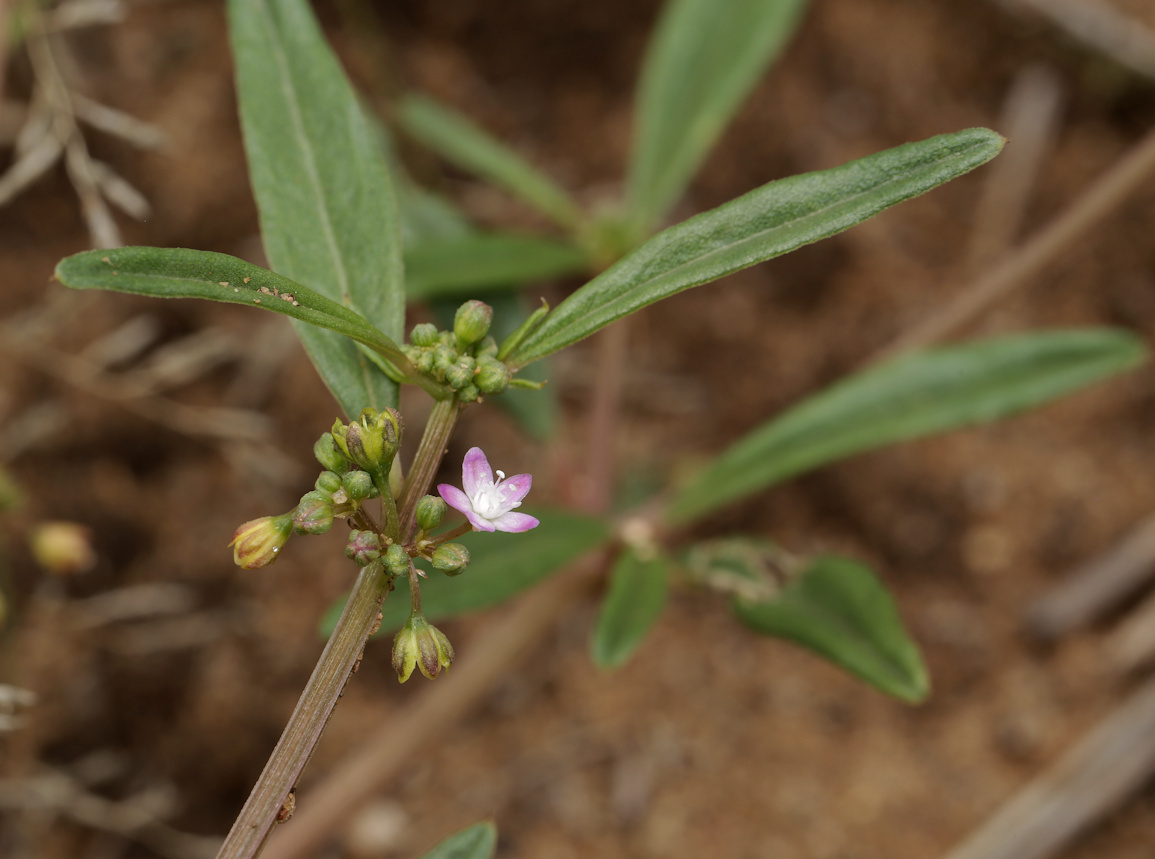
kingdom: Plantae
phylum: Tracheophyta
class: Magnoliopsida
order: Caryophyllales
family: Gisekiaceae
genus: Gisekia
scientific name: Gisekia pharnaceoides
